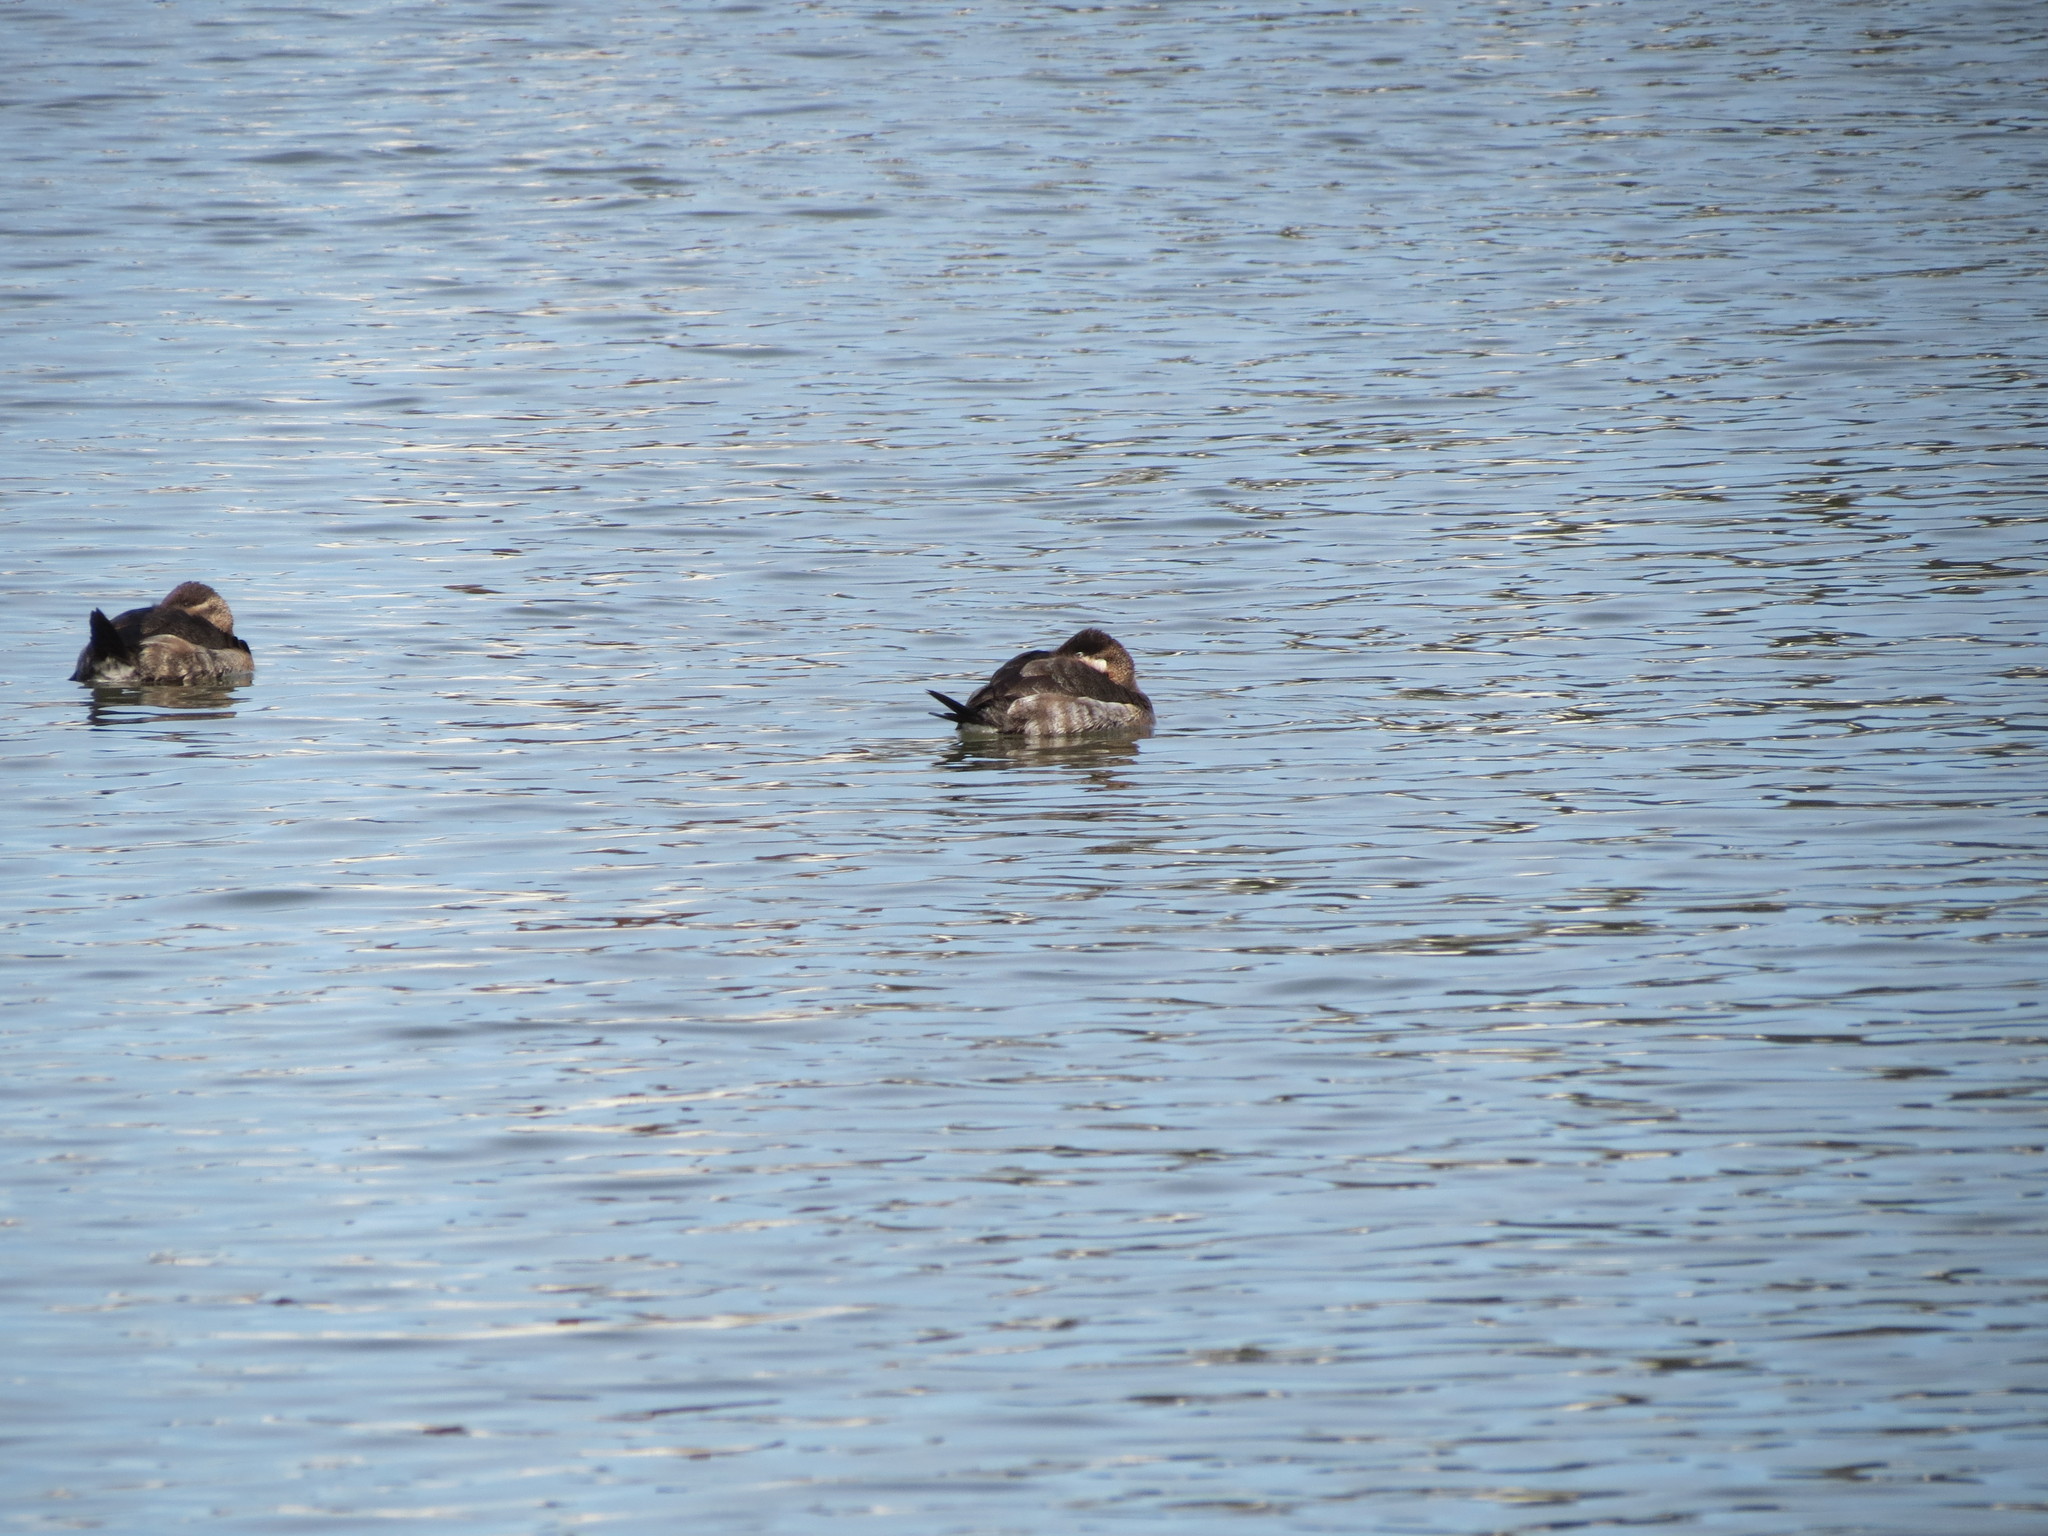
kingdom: Animalia
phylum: Chordata
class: Aves
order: Anseriformes
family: Anatidae
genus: Oxyura
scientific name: Oxyura jamaicensis
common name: Ruddy duck
